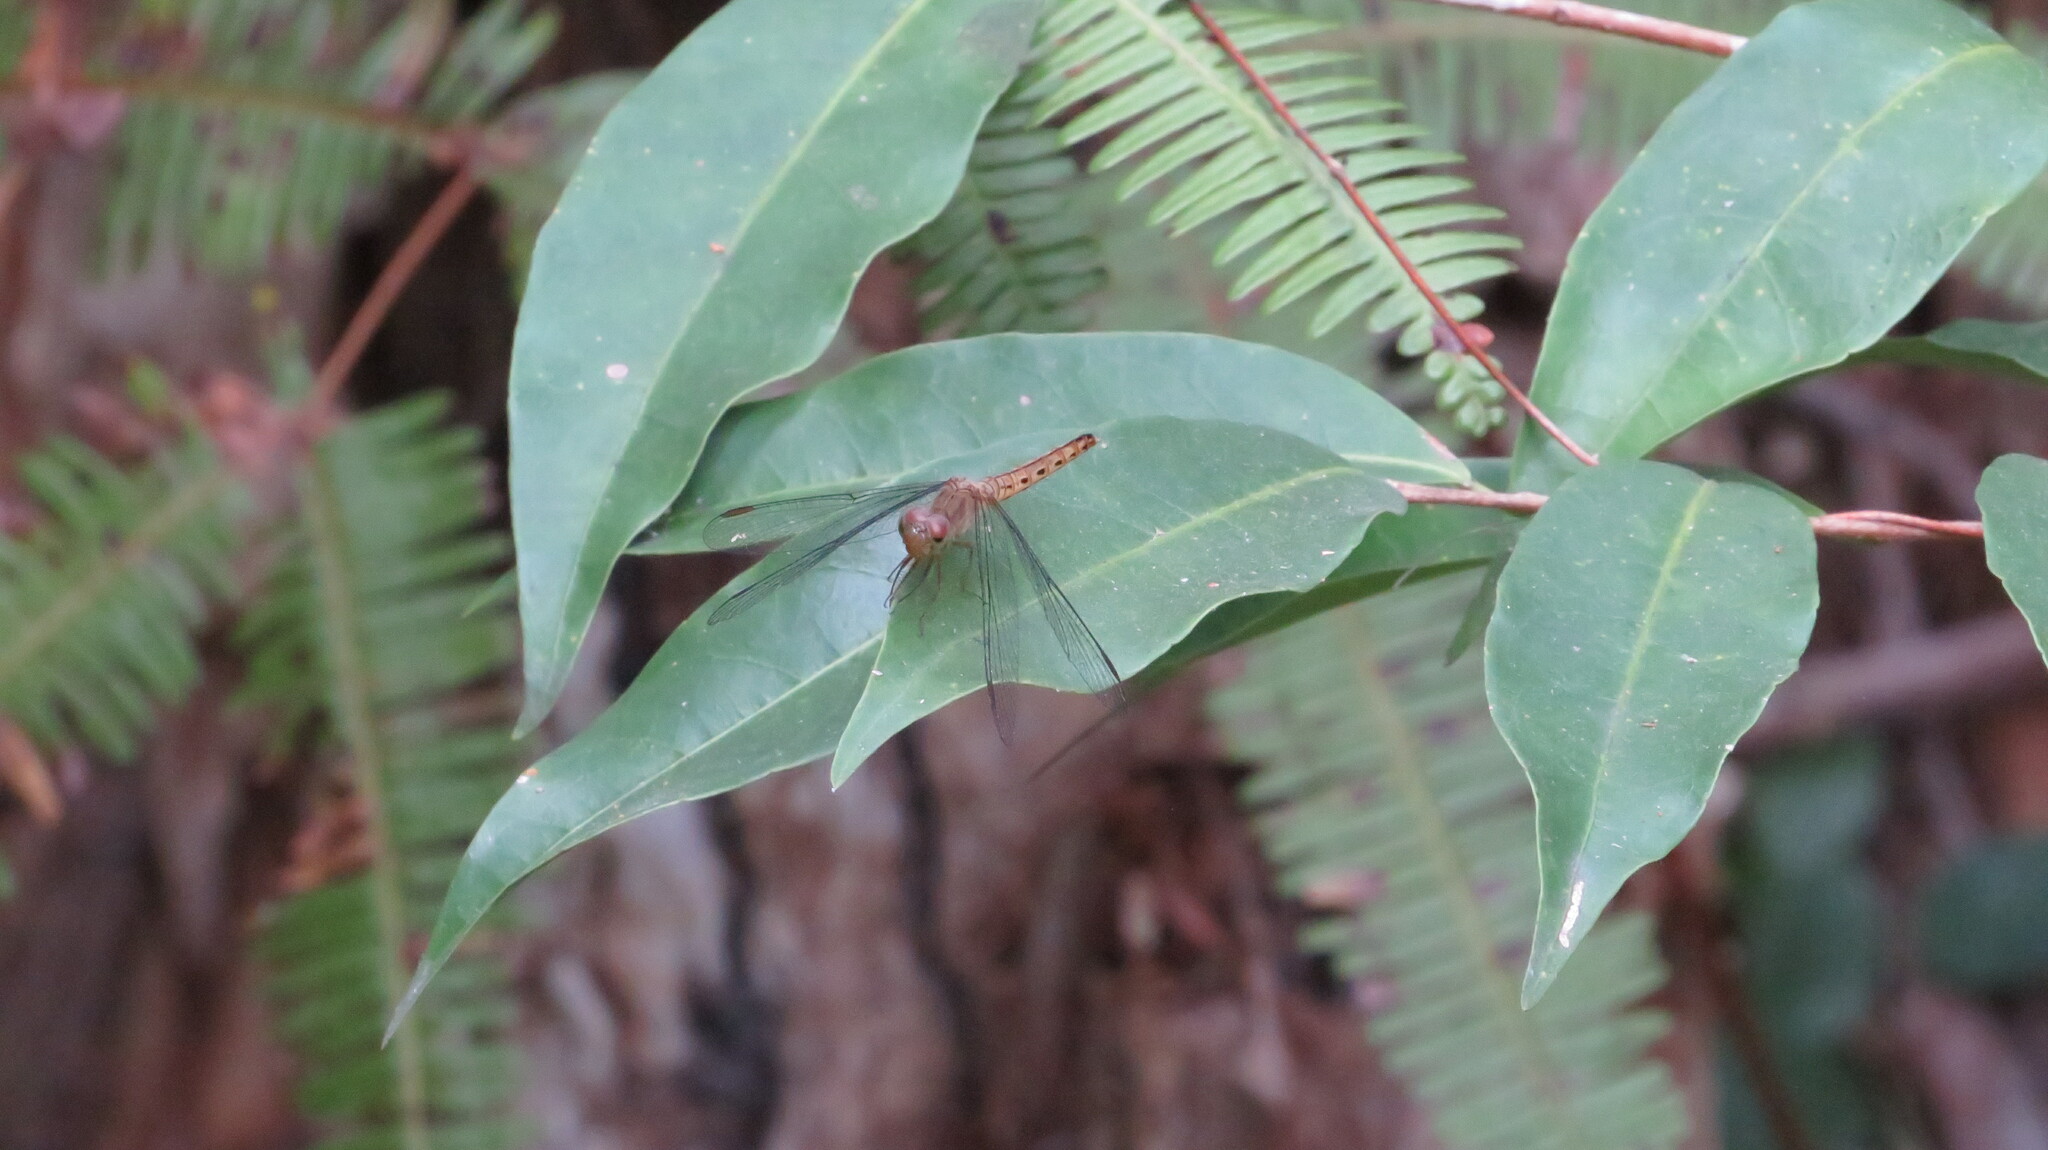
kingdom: Animalia
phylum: Arthropoda
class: Insecta
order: Odonata
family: Libellulidae
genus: Neurothemis
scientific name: Neurothemis fluctuans
